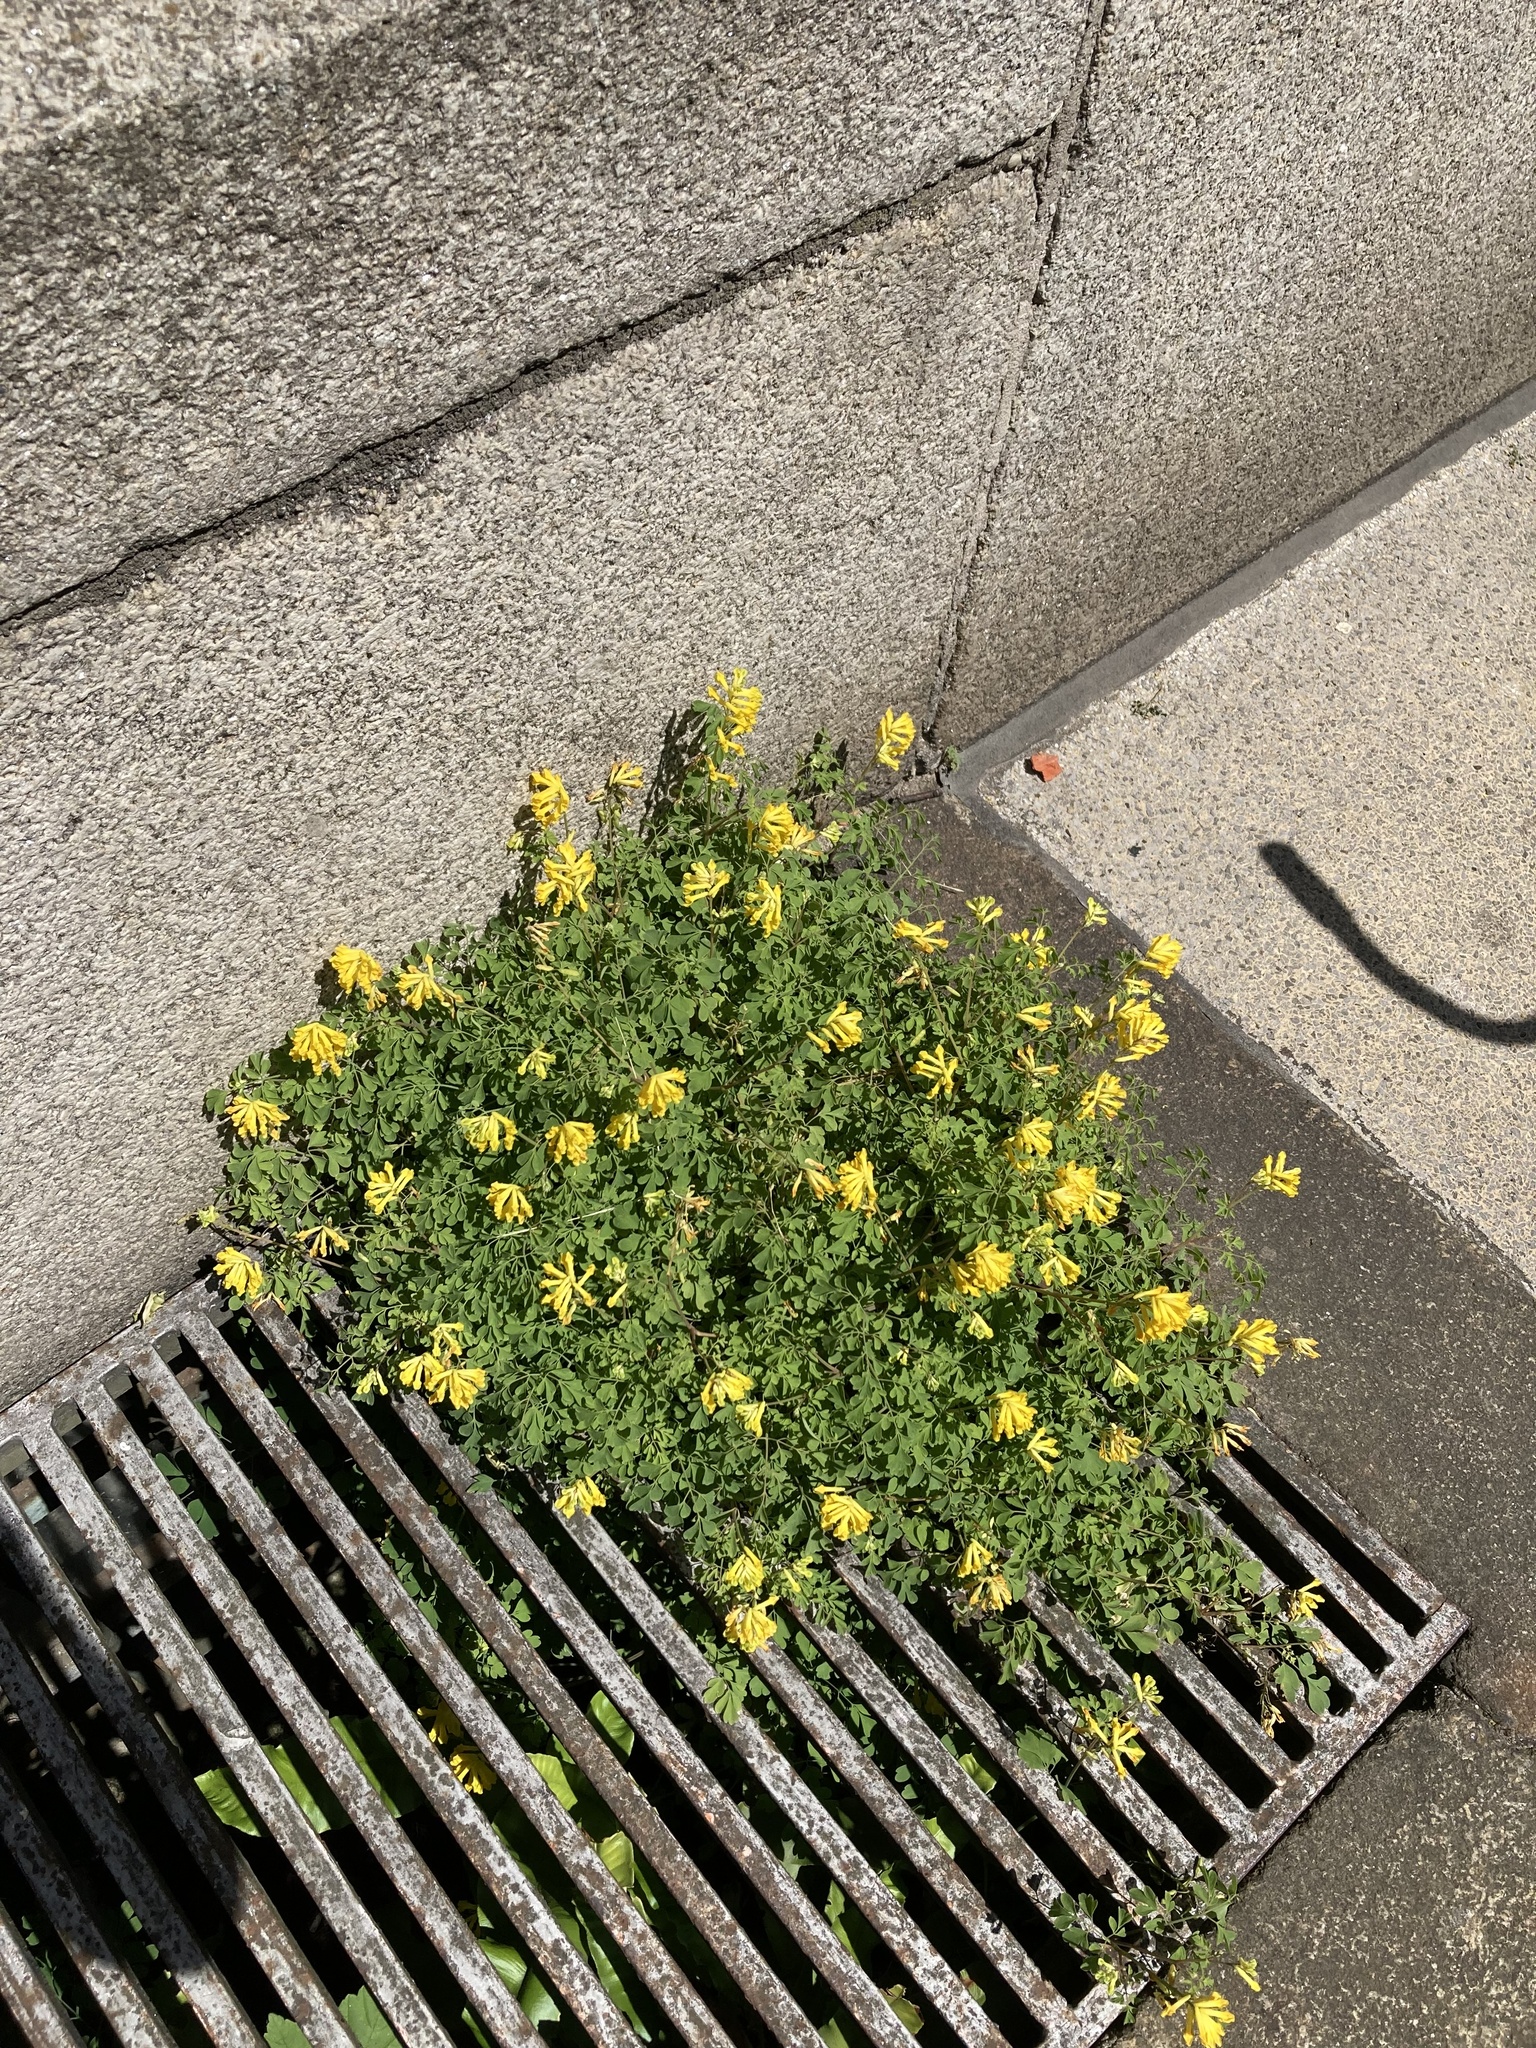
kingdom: Plantae
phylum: Tracheophyta
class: Magnoliopsida
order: Ranunculales
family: Papaveraceae
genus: Pseudofumaria
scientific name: Pseudofumaria lutea
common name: Yellow corydalis
